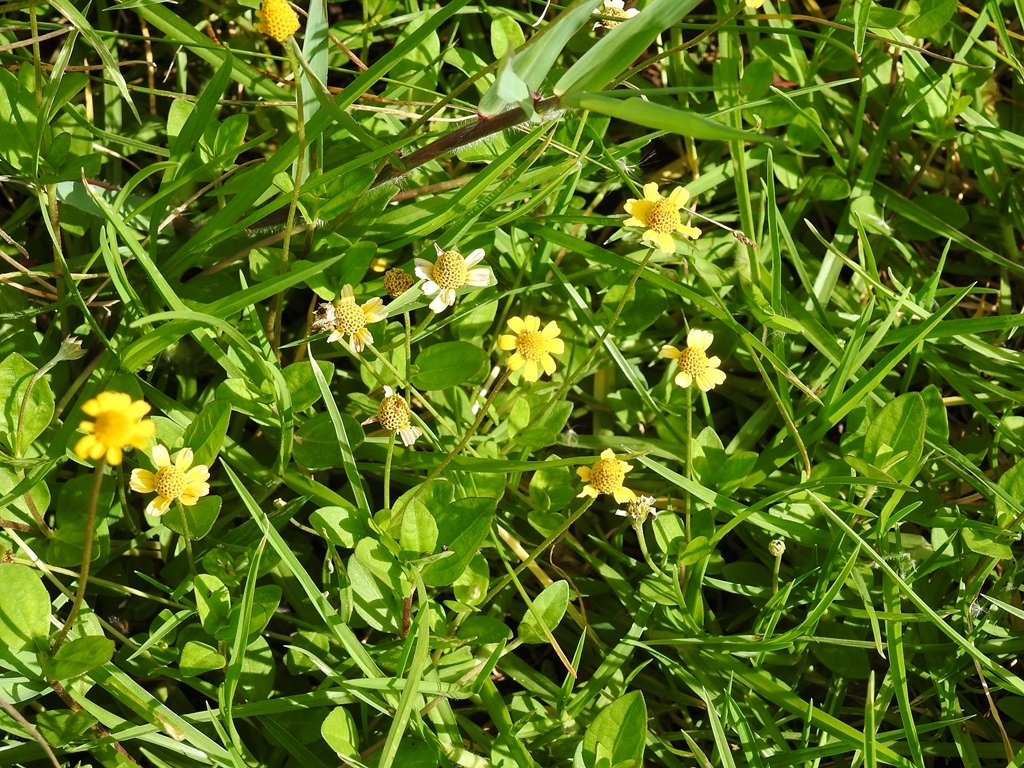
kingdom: Plantae
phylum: Tracheophyta
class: Magnoliopsida
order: Asterales
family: Asteraceae
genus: Heliopsis
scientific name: Heliopsis buphthalmoides
